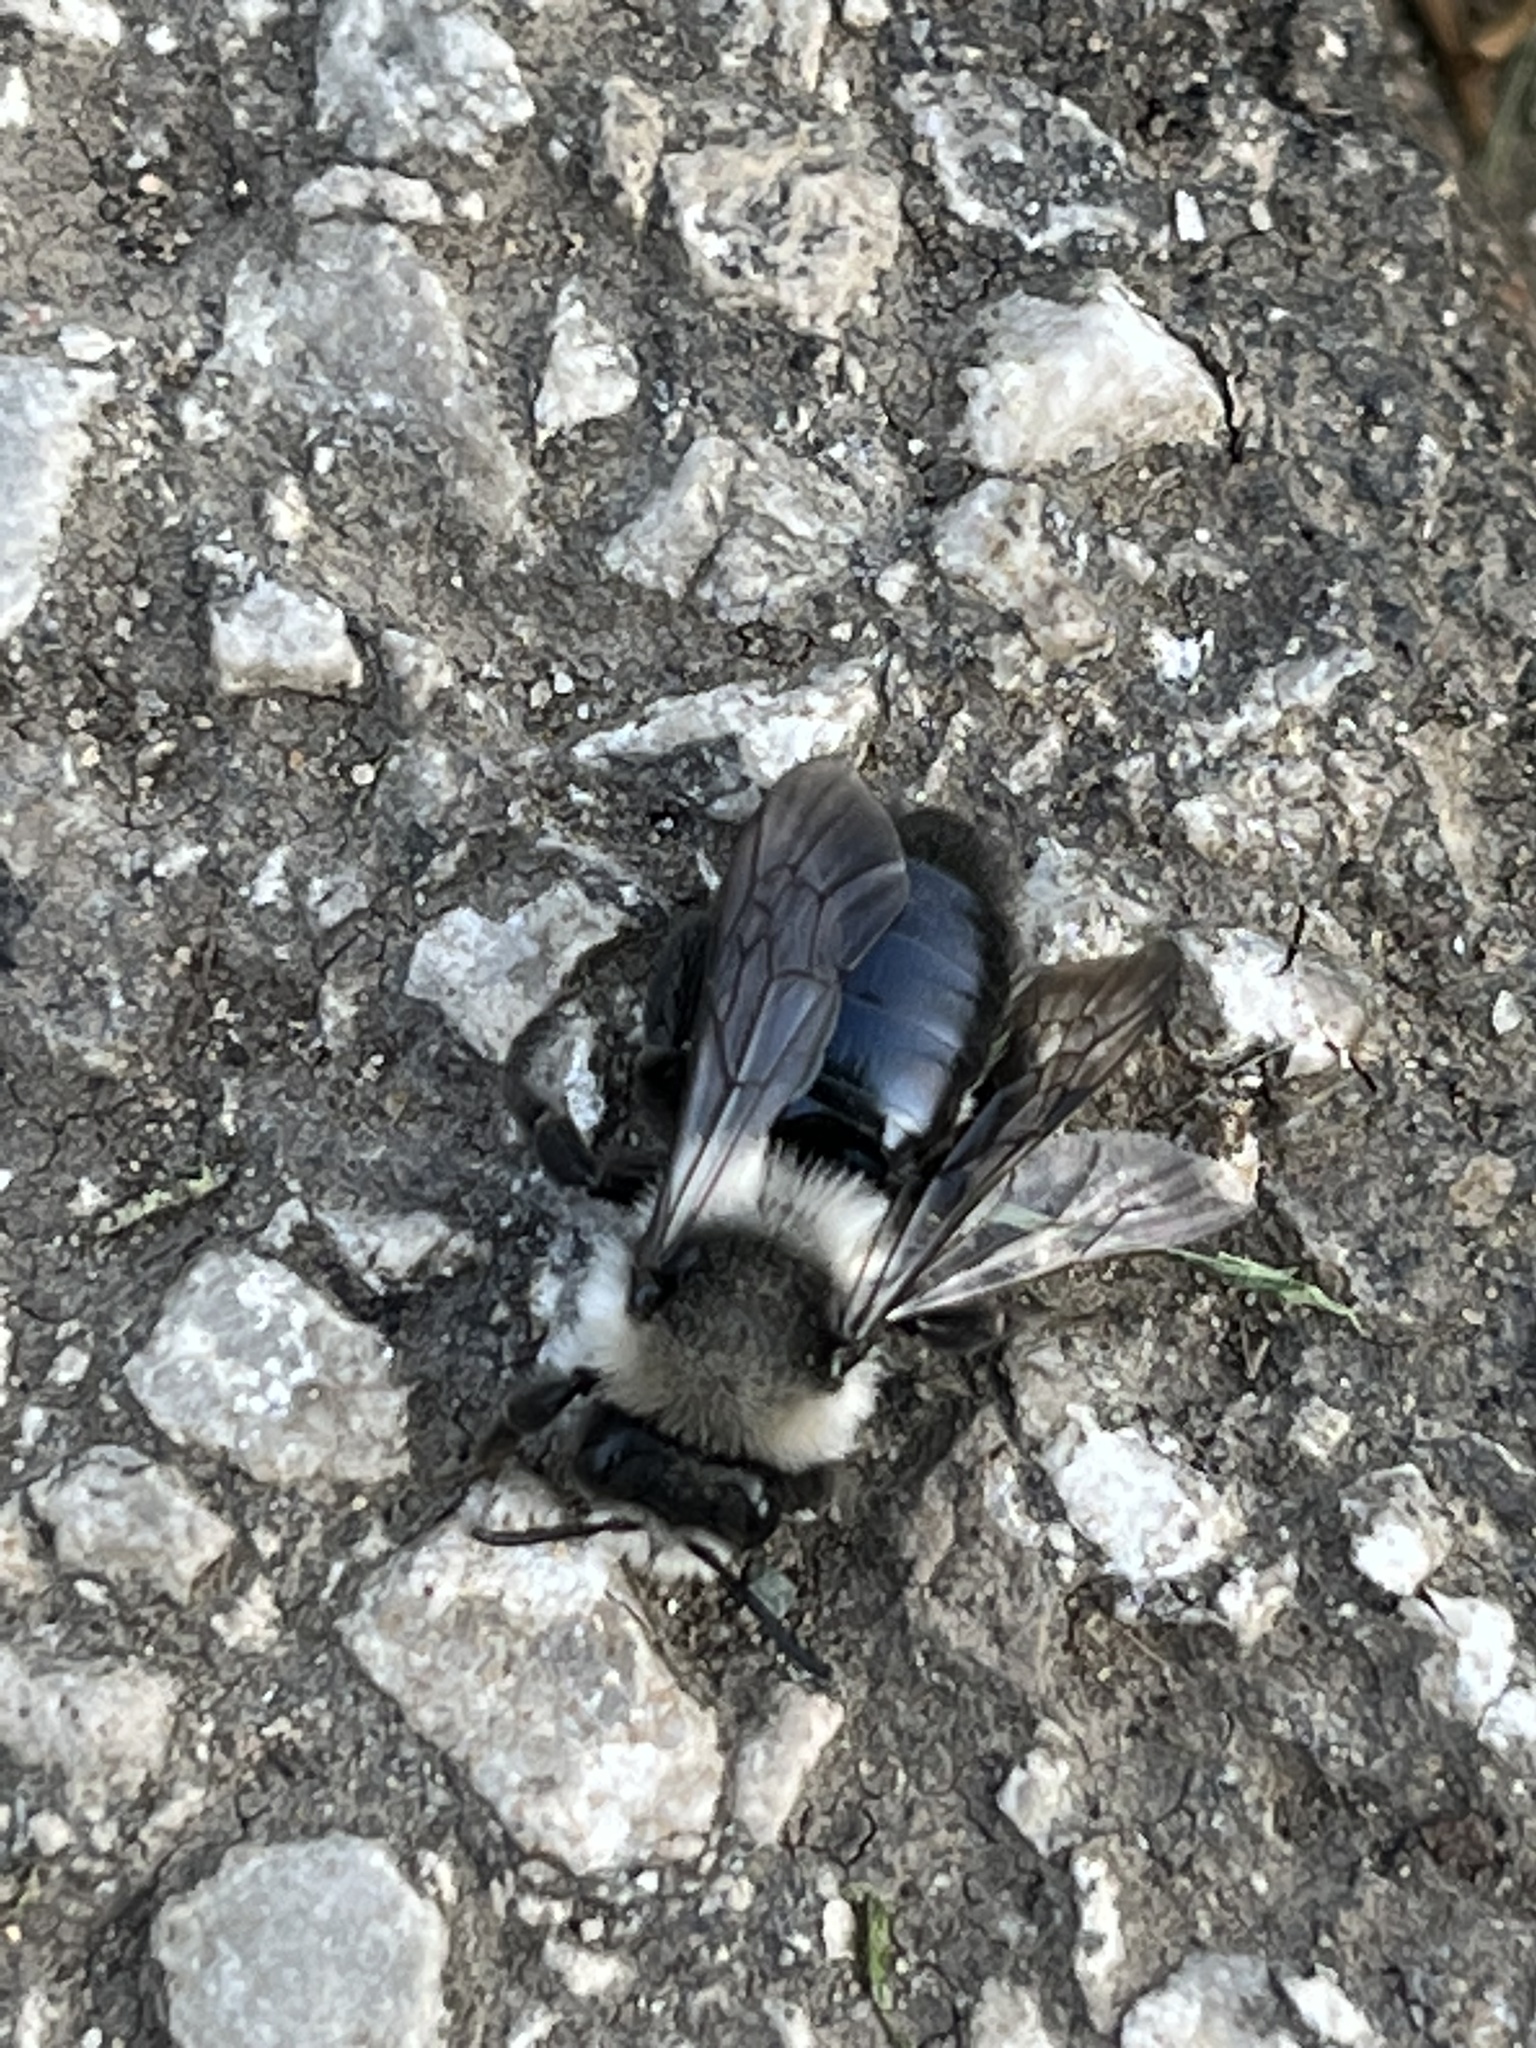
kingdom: Animalia
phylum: Arthropoda
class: Insecta
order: Hymenoptera
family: Andrenidae
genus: Andrena
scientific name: Andrena cineraria
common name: Ashy mining bee
